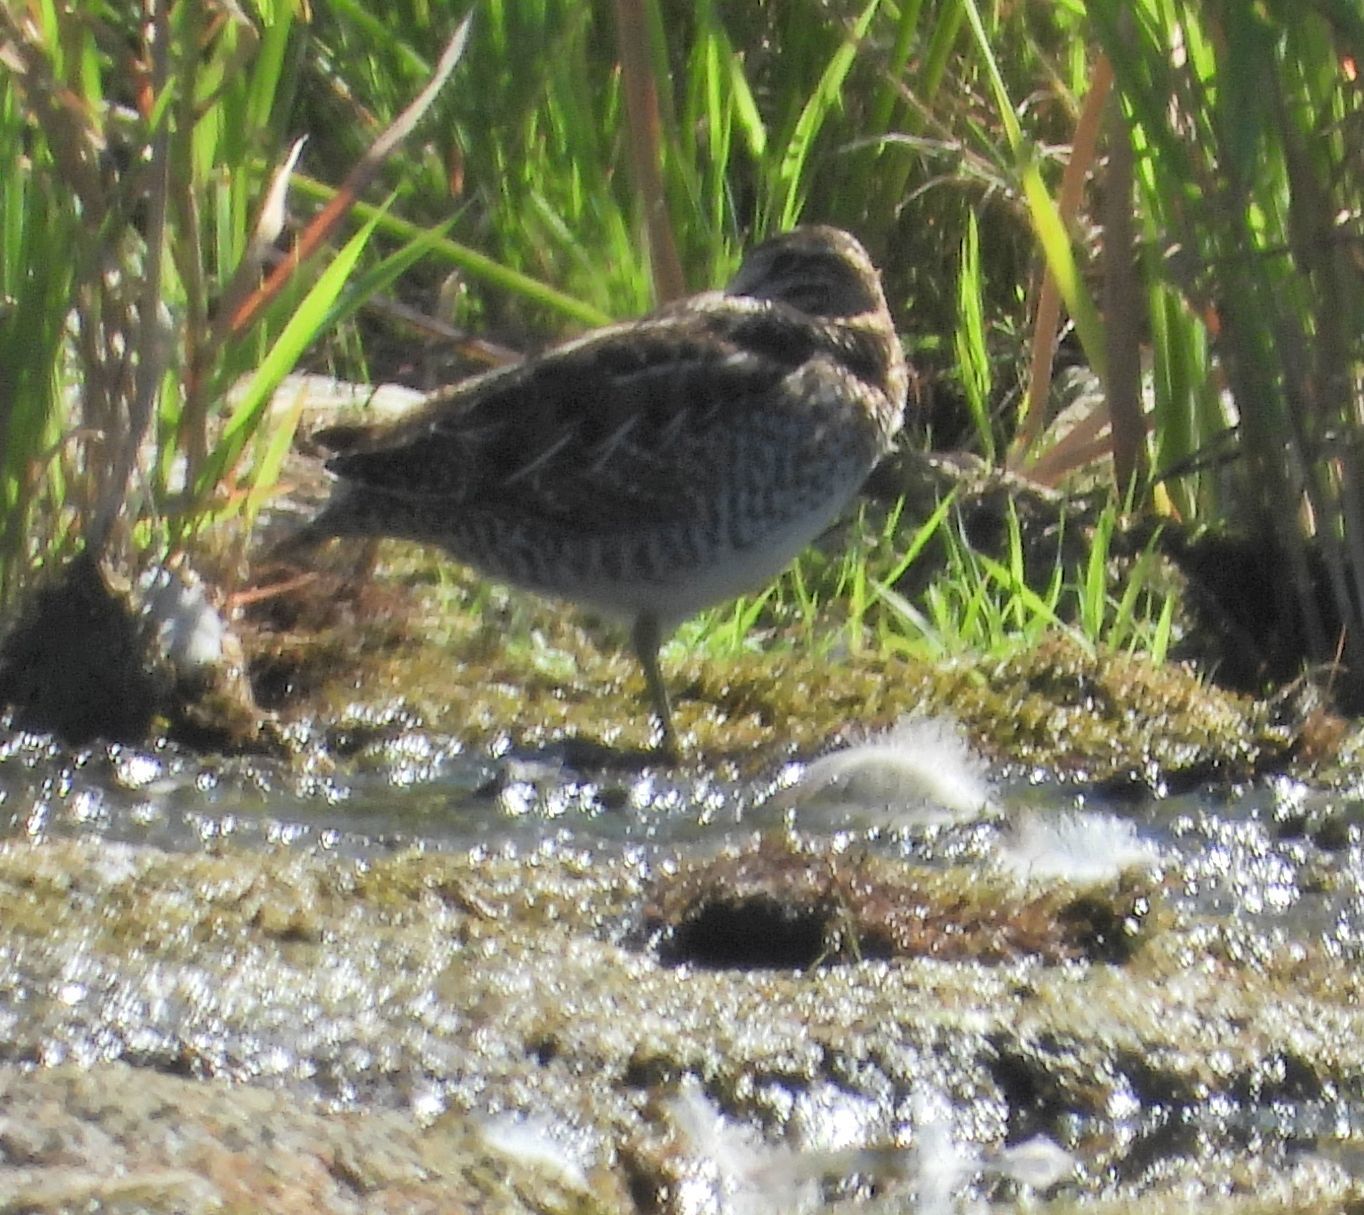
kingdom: Animalia
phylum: Chordata
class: Aves
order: Charadriiformes
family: Scolopacidae
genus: Gallinago
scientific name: Gallinago delicata
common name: Wilson's snipe
